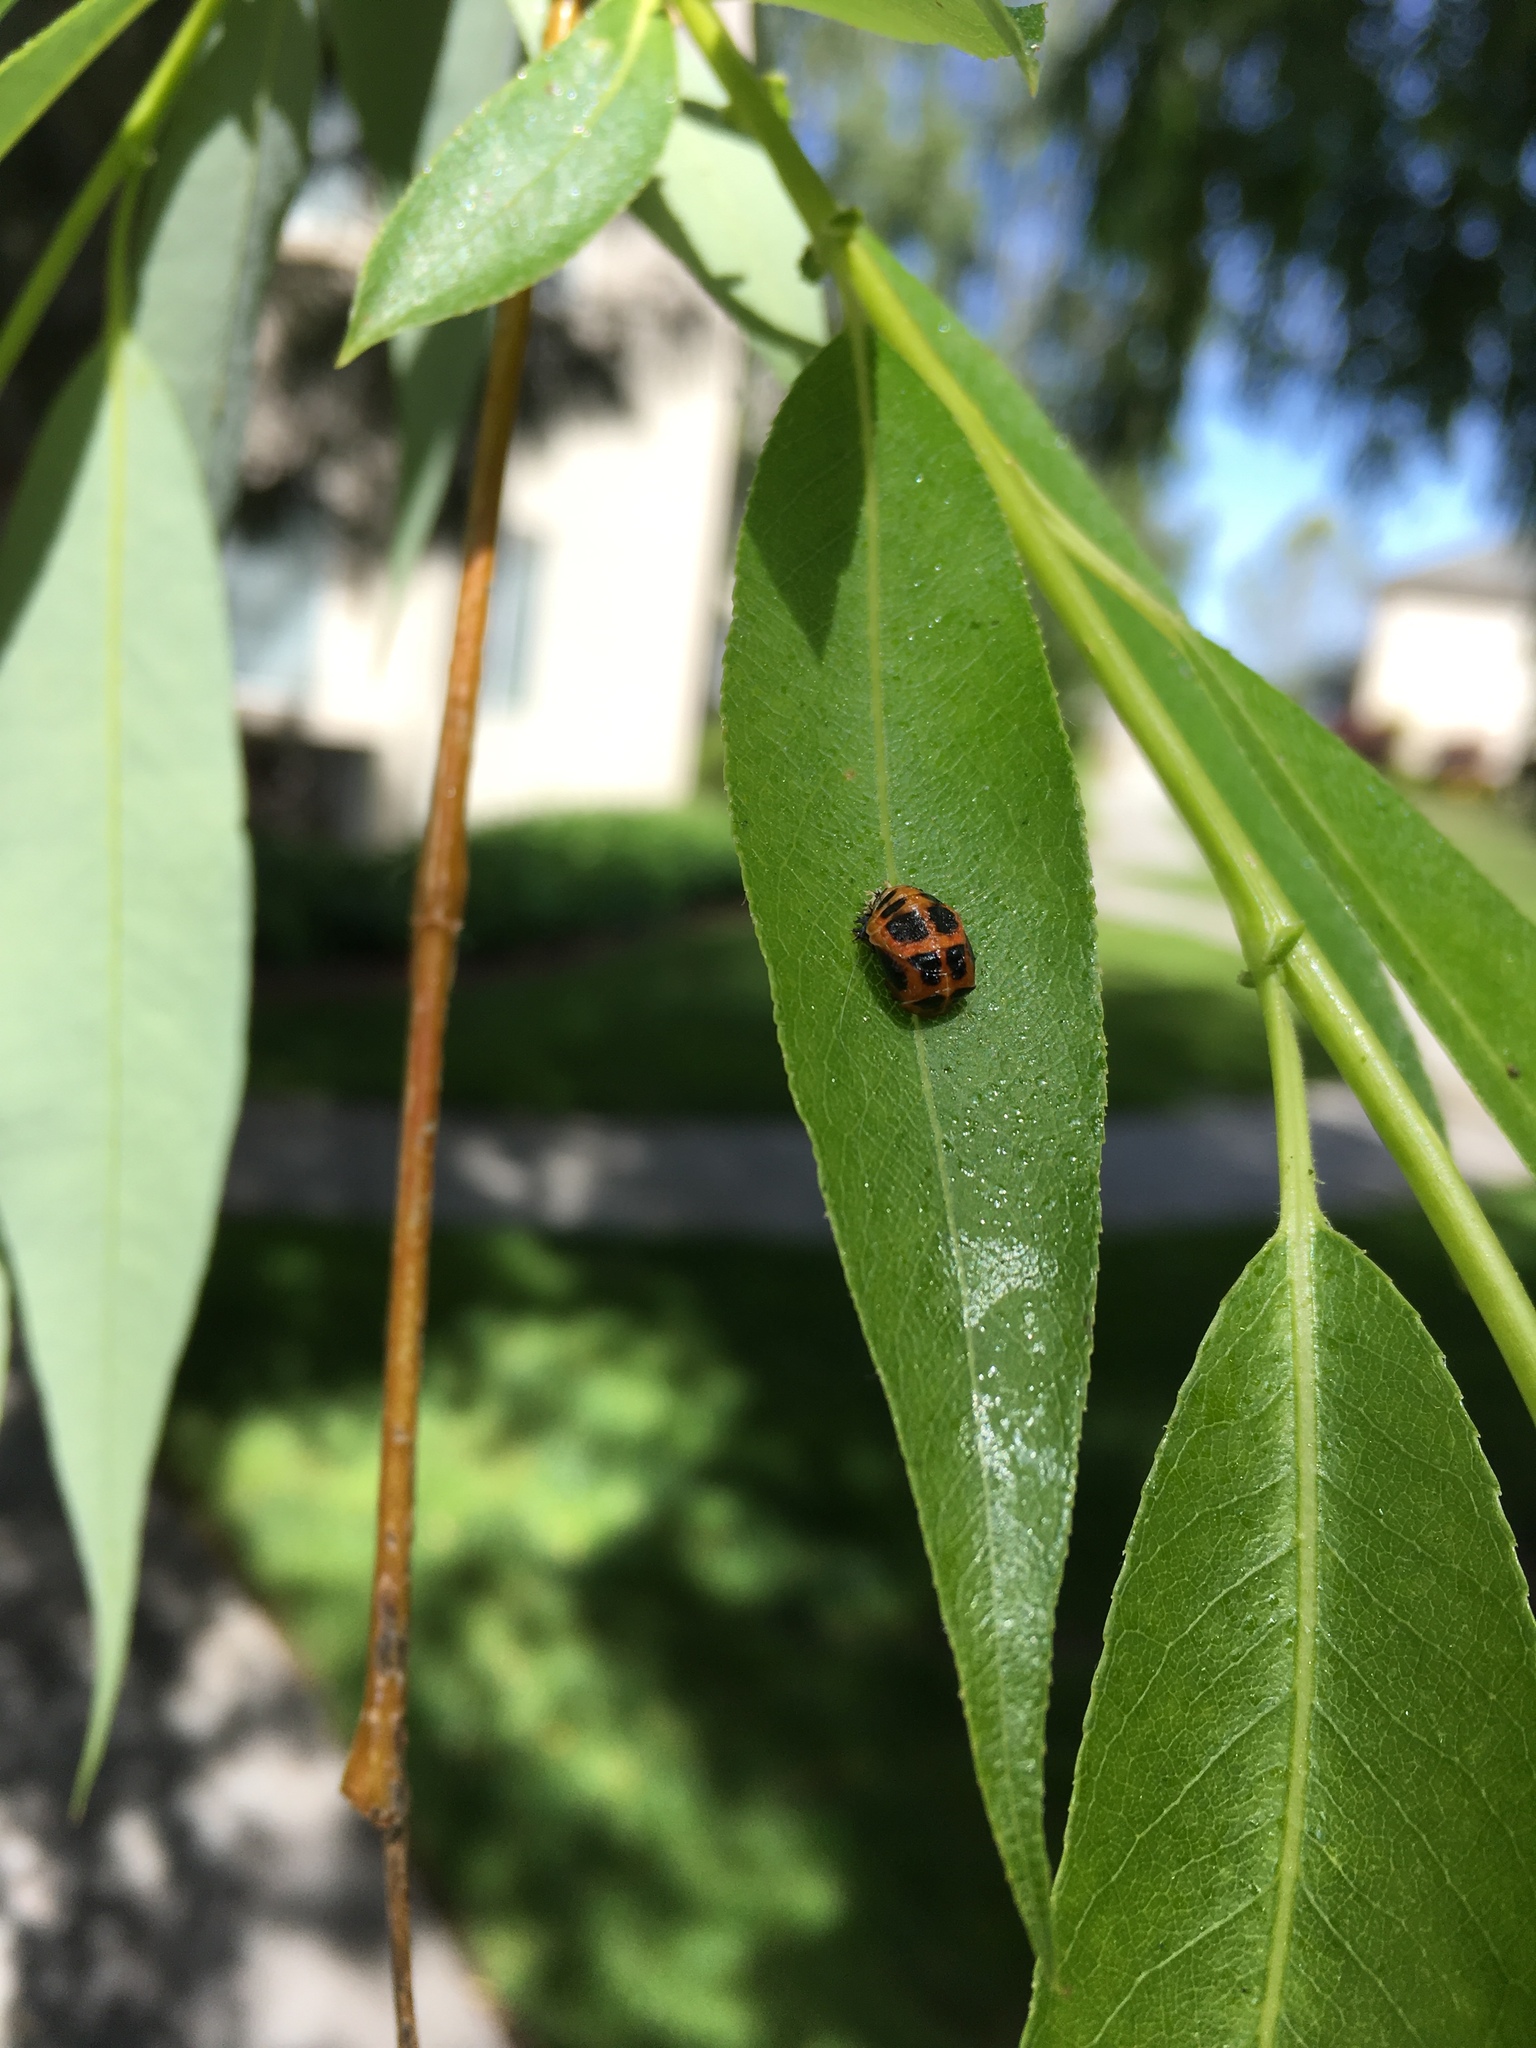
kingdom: Animalia
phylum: Arthropoda
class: Insecta
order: Coleoptera
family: Coccinellidae
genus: Harmonia
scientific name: Harmonia axyridis
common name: Harlequin ladybird
